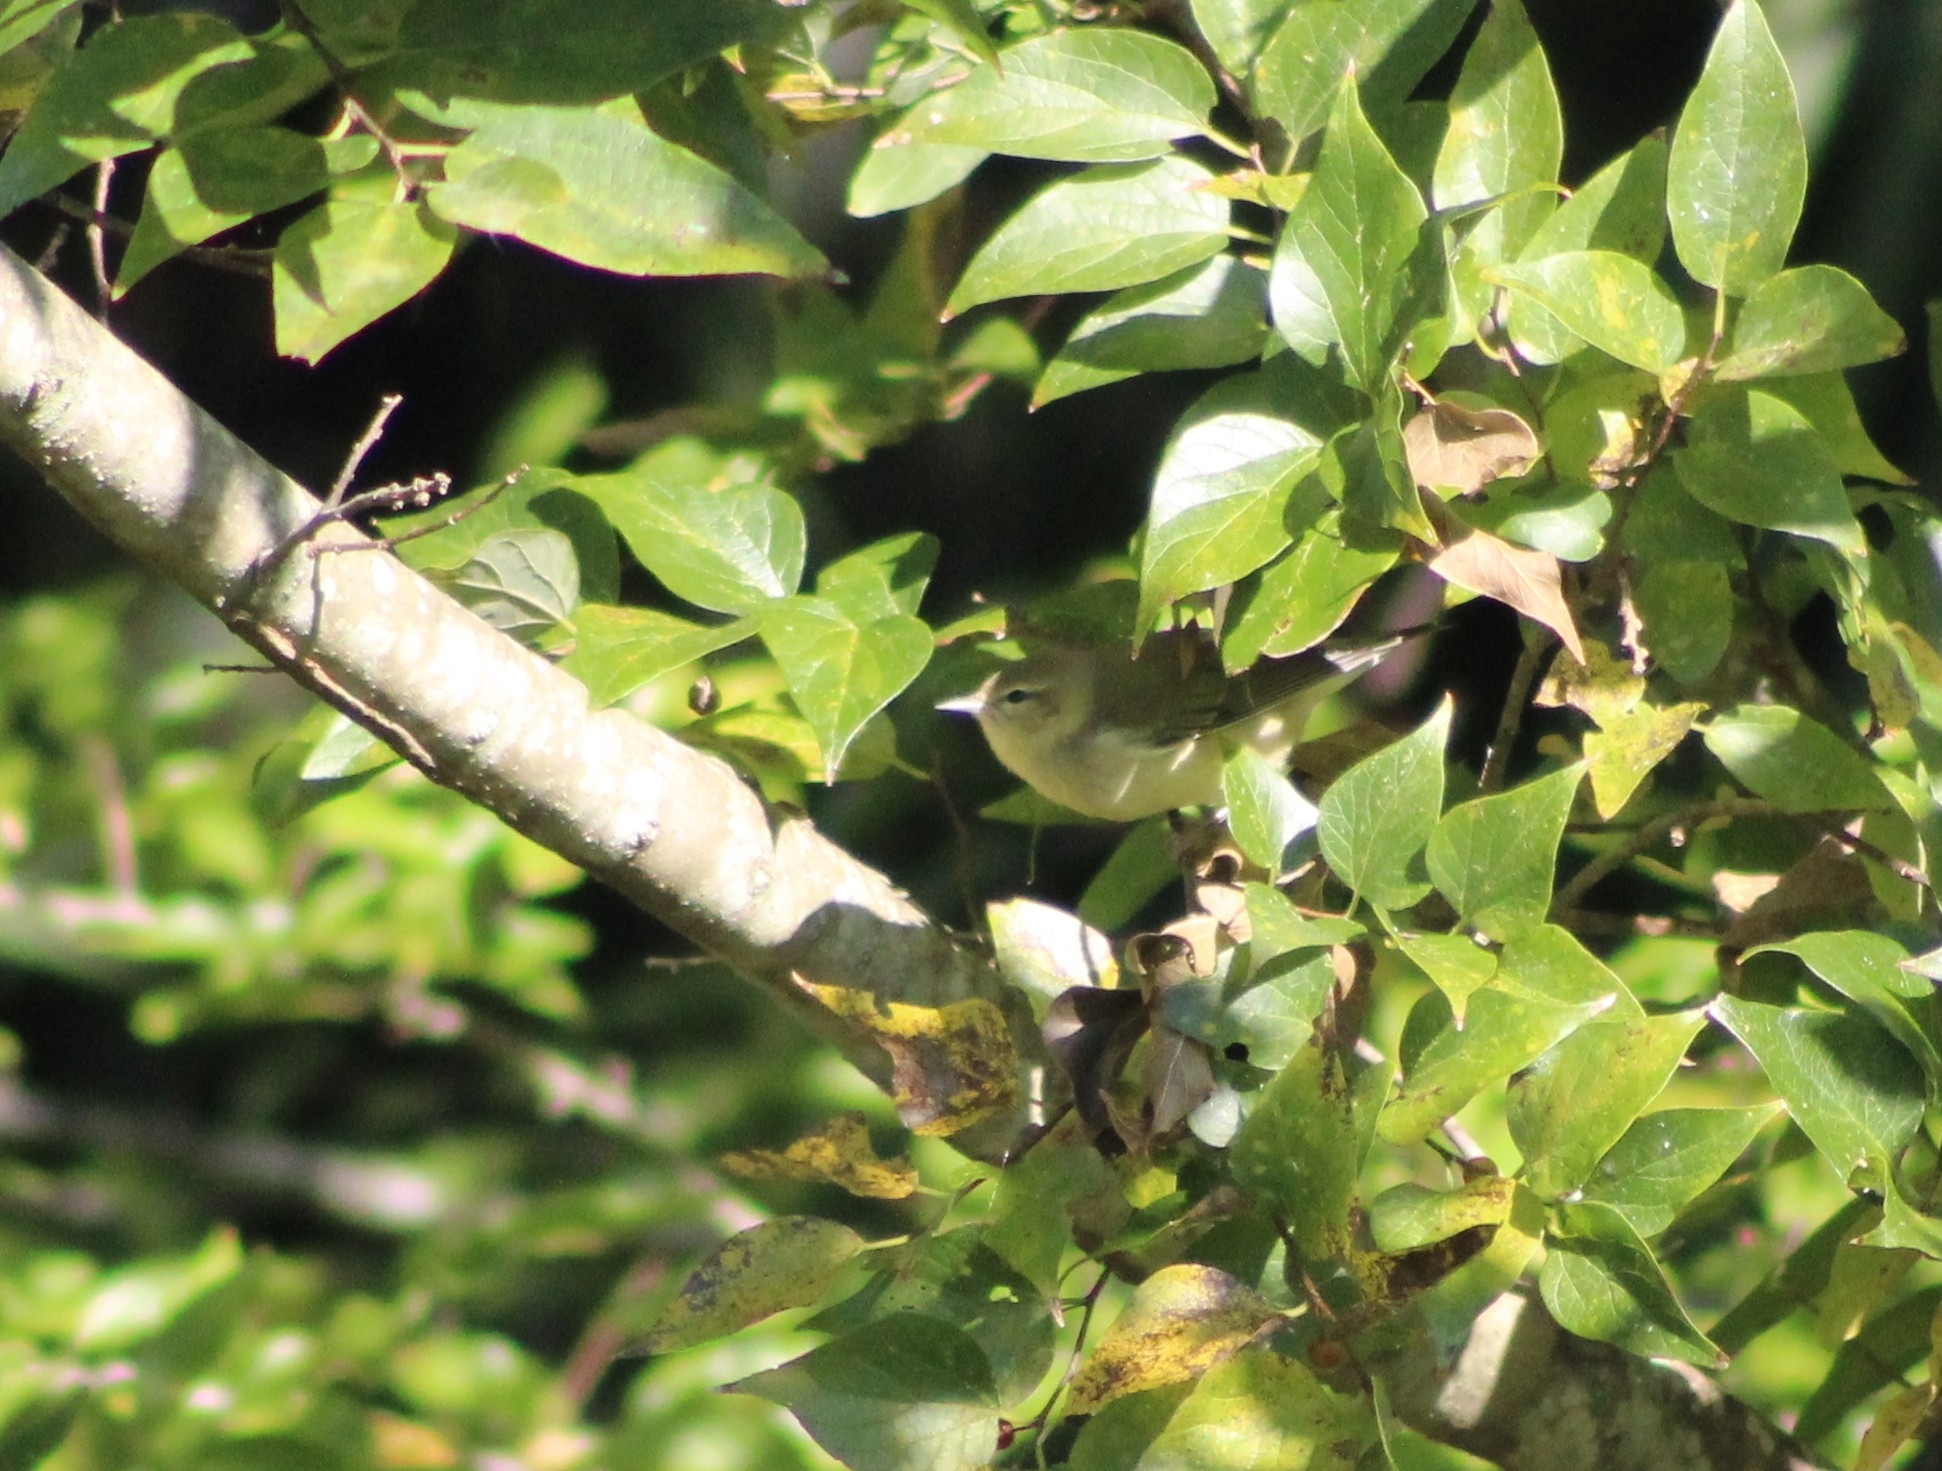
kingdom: Animalia
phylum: Chordata
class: Aves
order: Passeriformes
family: Parulidae
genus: Leiothlypis
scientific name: Leiothlypis peregrina
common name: Tennessee warbler
